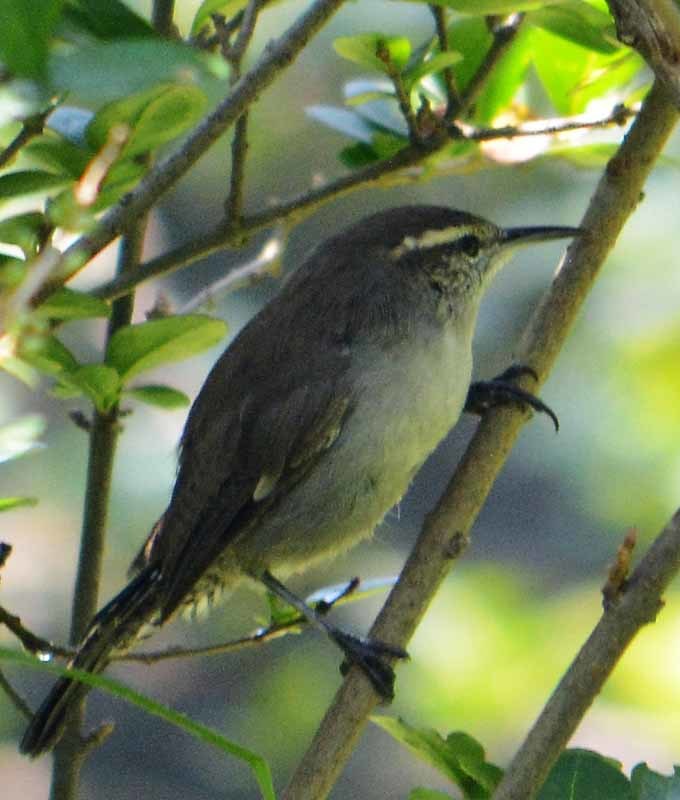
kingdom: Animalia
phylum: Chordata
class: Aves
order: Passeriformes
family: Troglodytidae
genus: Thryomanes
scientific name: Thryomanes bewickii
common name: Bewick's wren
